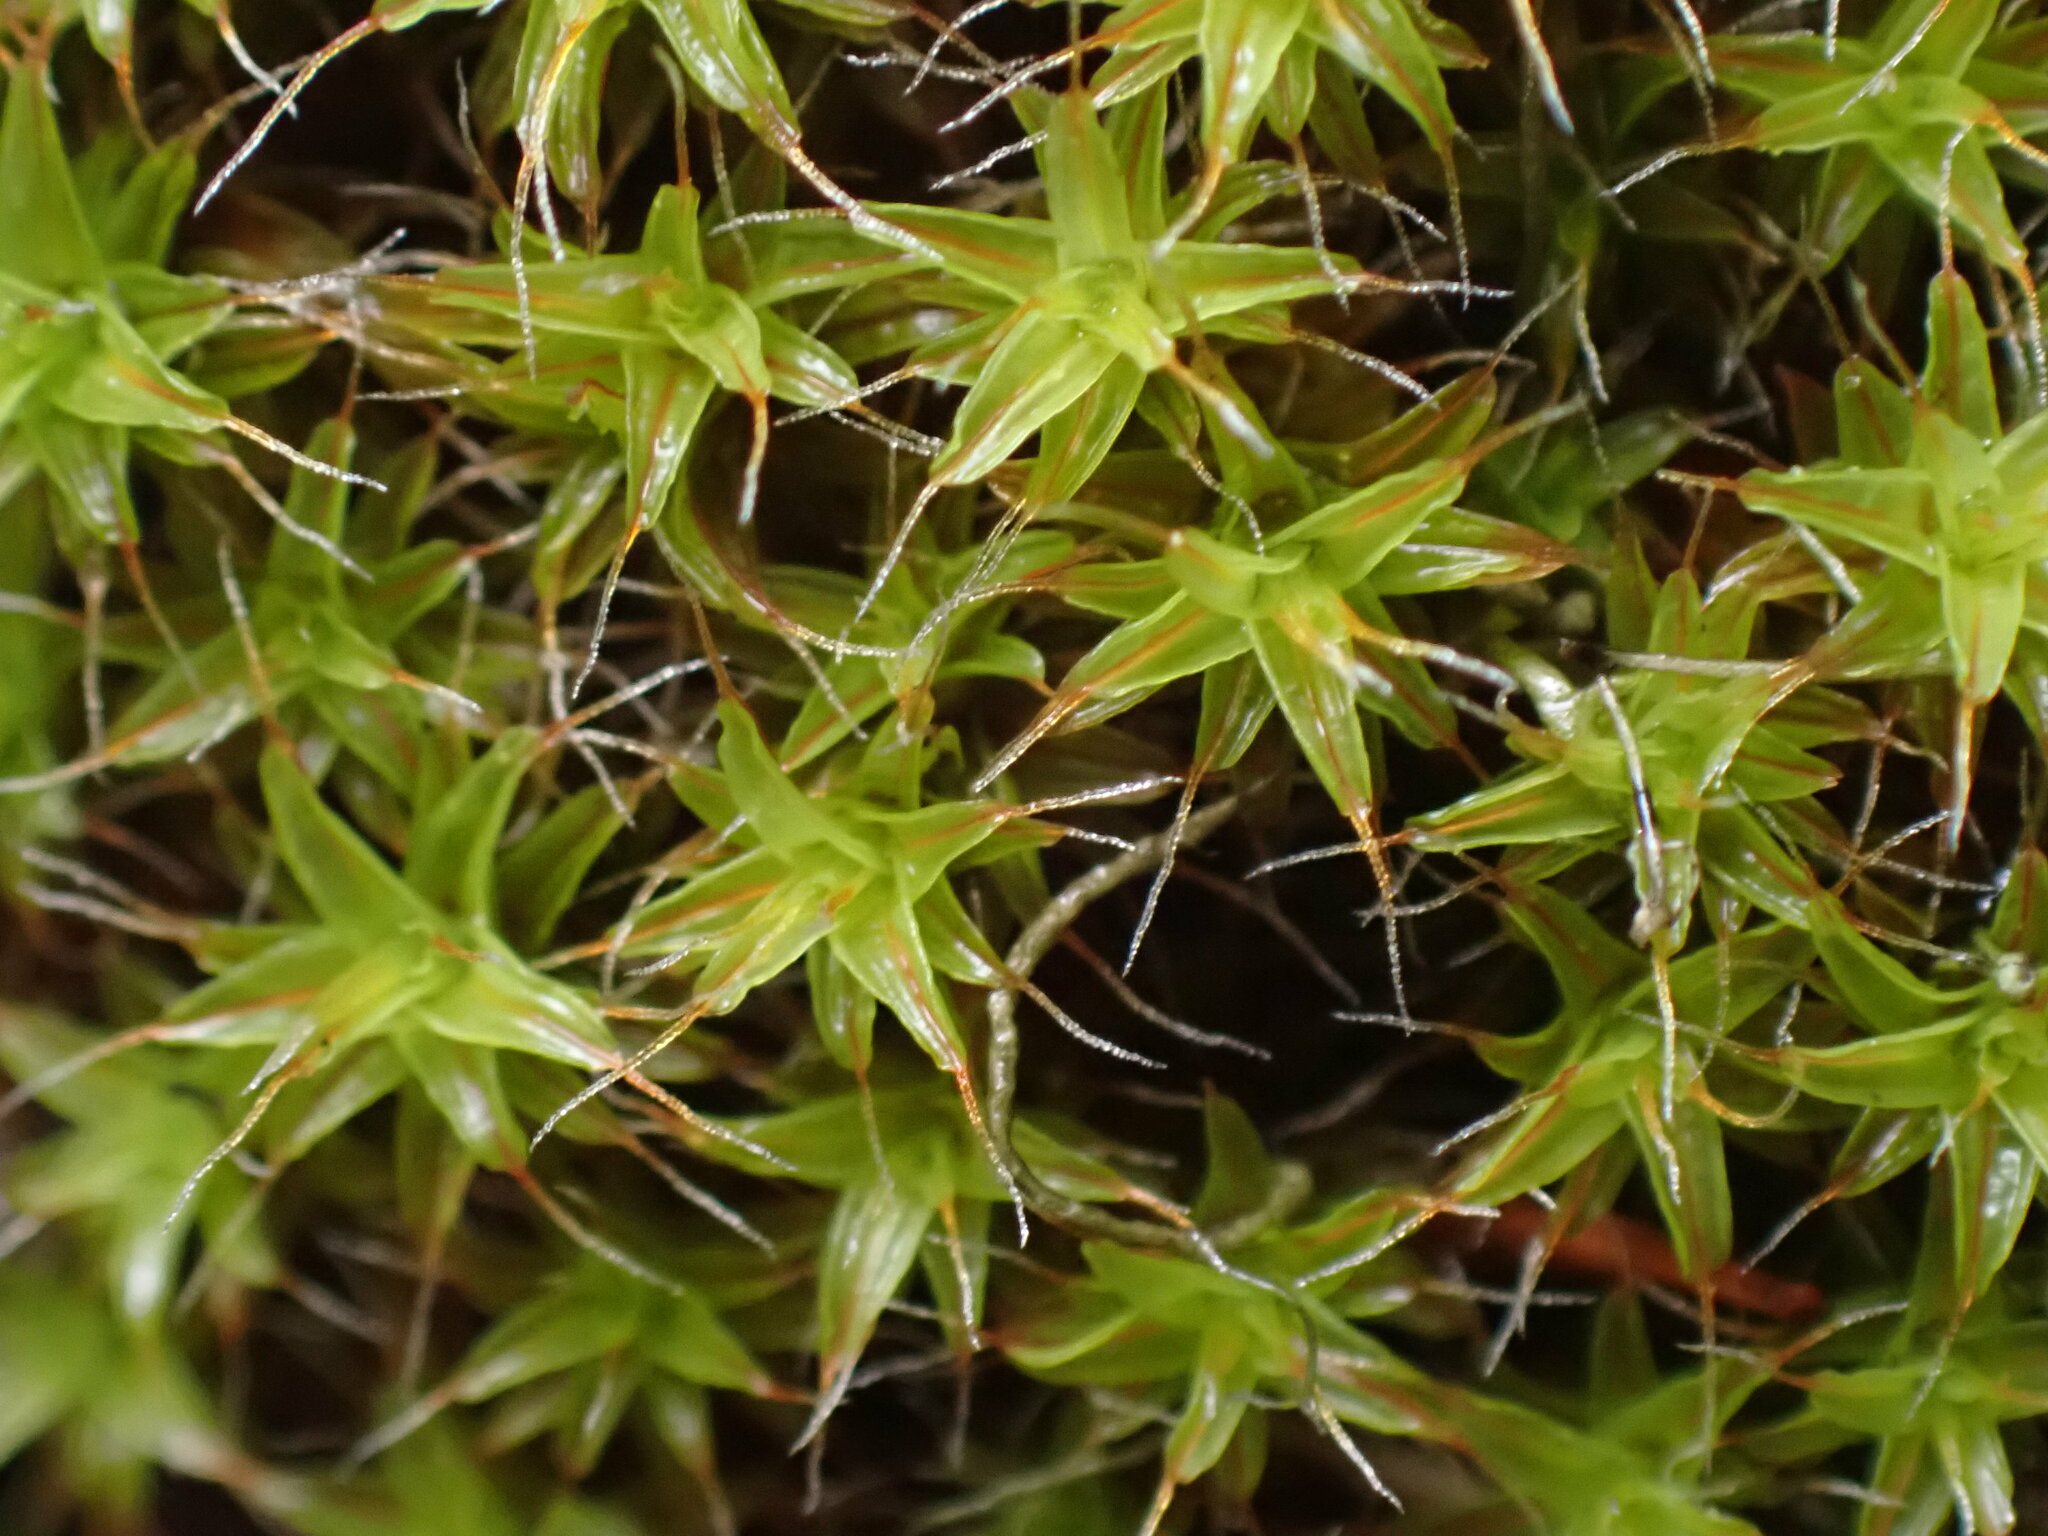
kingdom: Plantae
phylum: Bryophyta
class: Bryopsida
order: Pottiales
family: Pottiaceae
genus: Syntrichia
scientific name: Syntrichia ruralis
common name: Sidewalk screw moss
